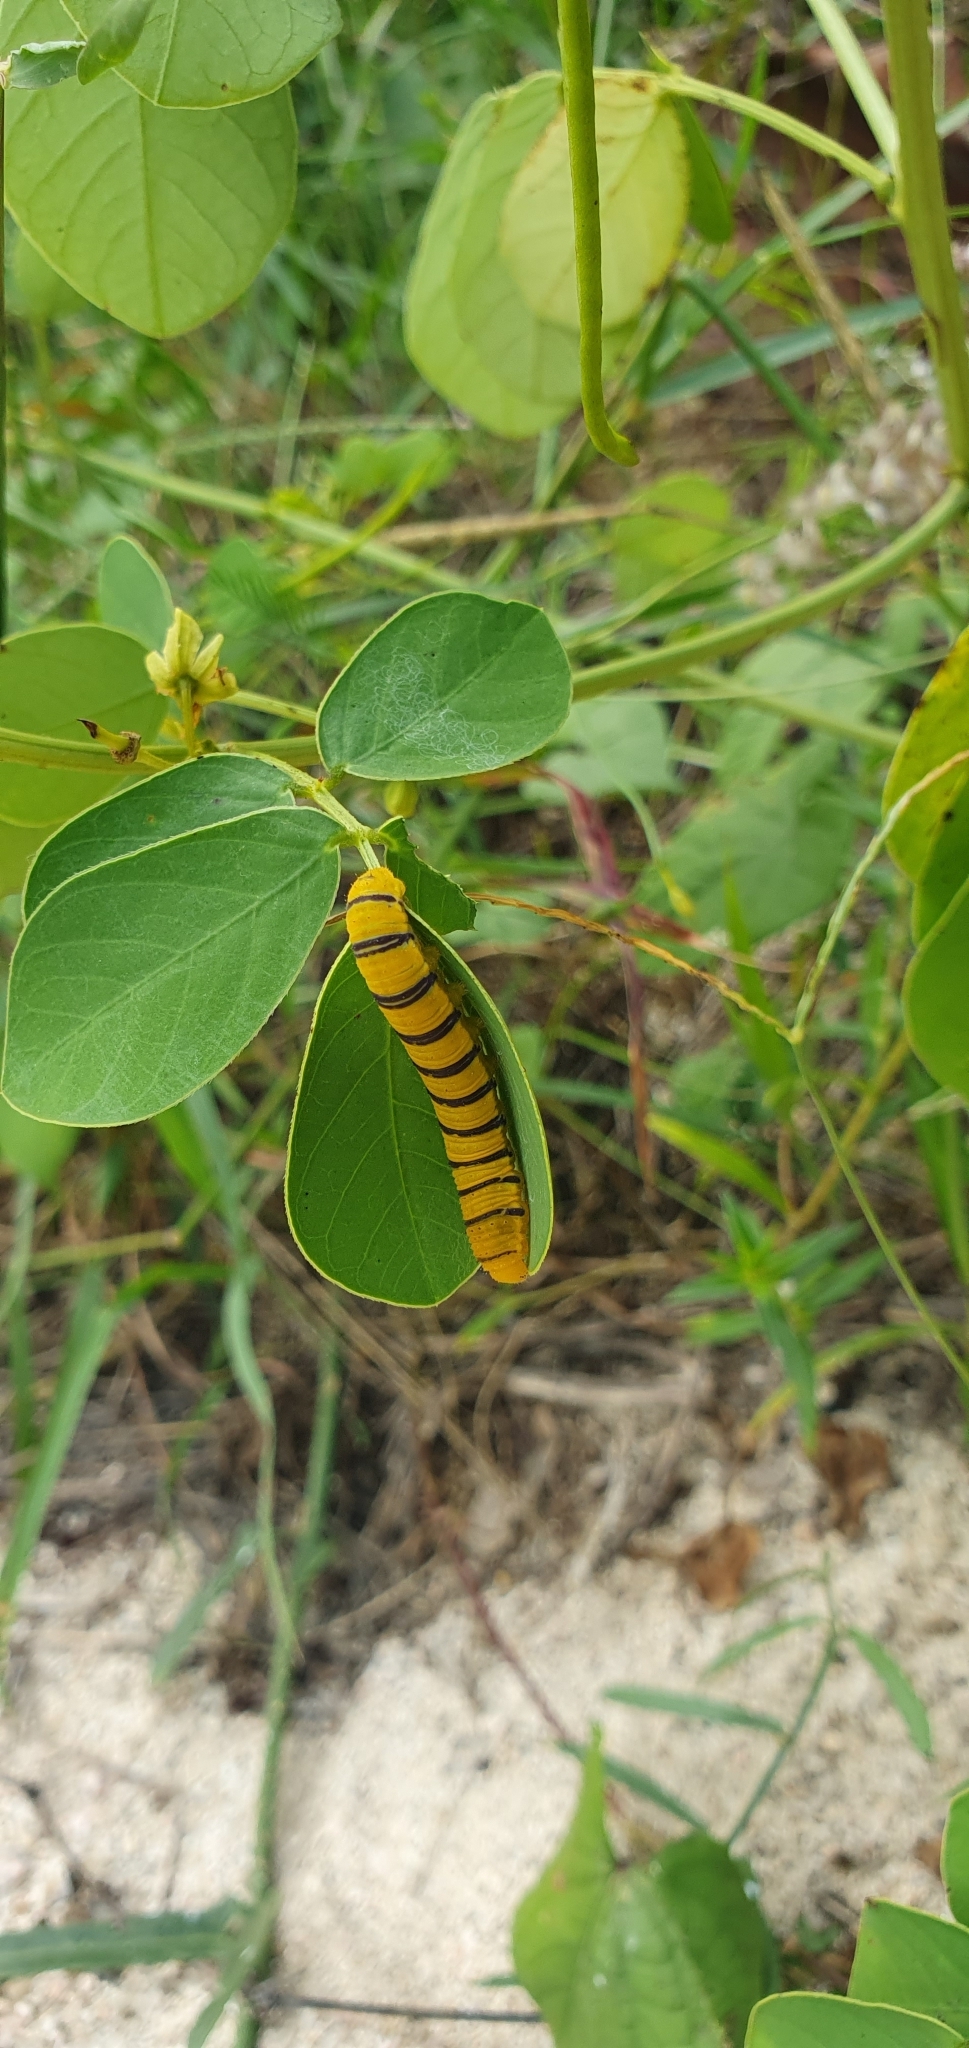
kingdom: Animalia
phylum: Arthropoda
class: Insecta
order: Lepidoptera
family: Pieridae
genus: Phoebis
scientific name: Phoebis marcellina
